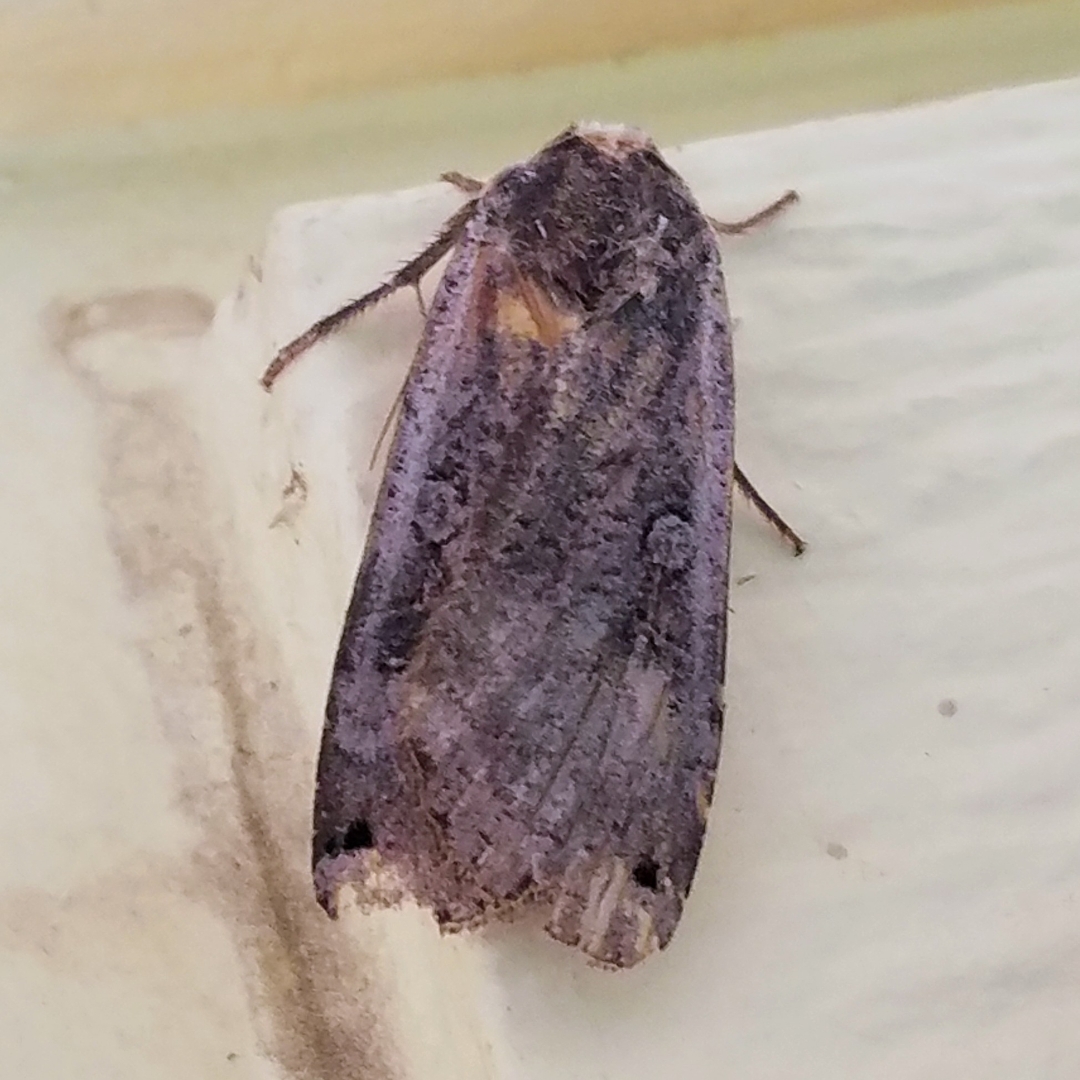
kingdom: Animalia
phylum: Arthropoda
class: Insecta
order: Lepidoptera
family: Noctuidae
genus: Noctua
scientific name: Noctua pronuba
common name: Large yellow underwing
